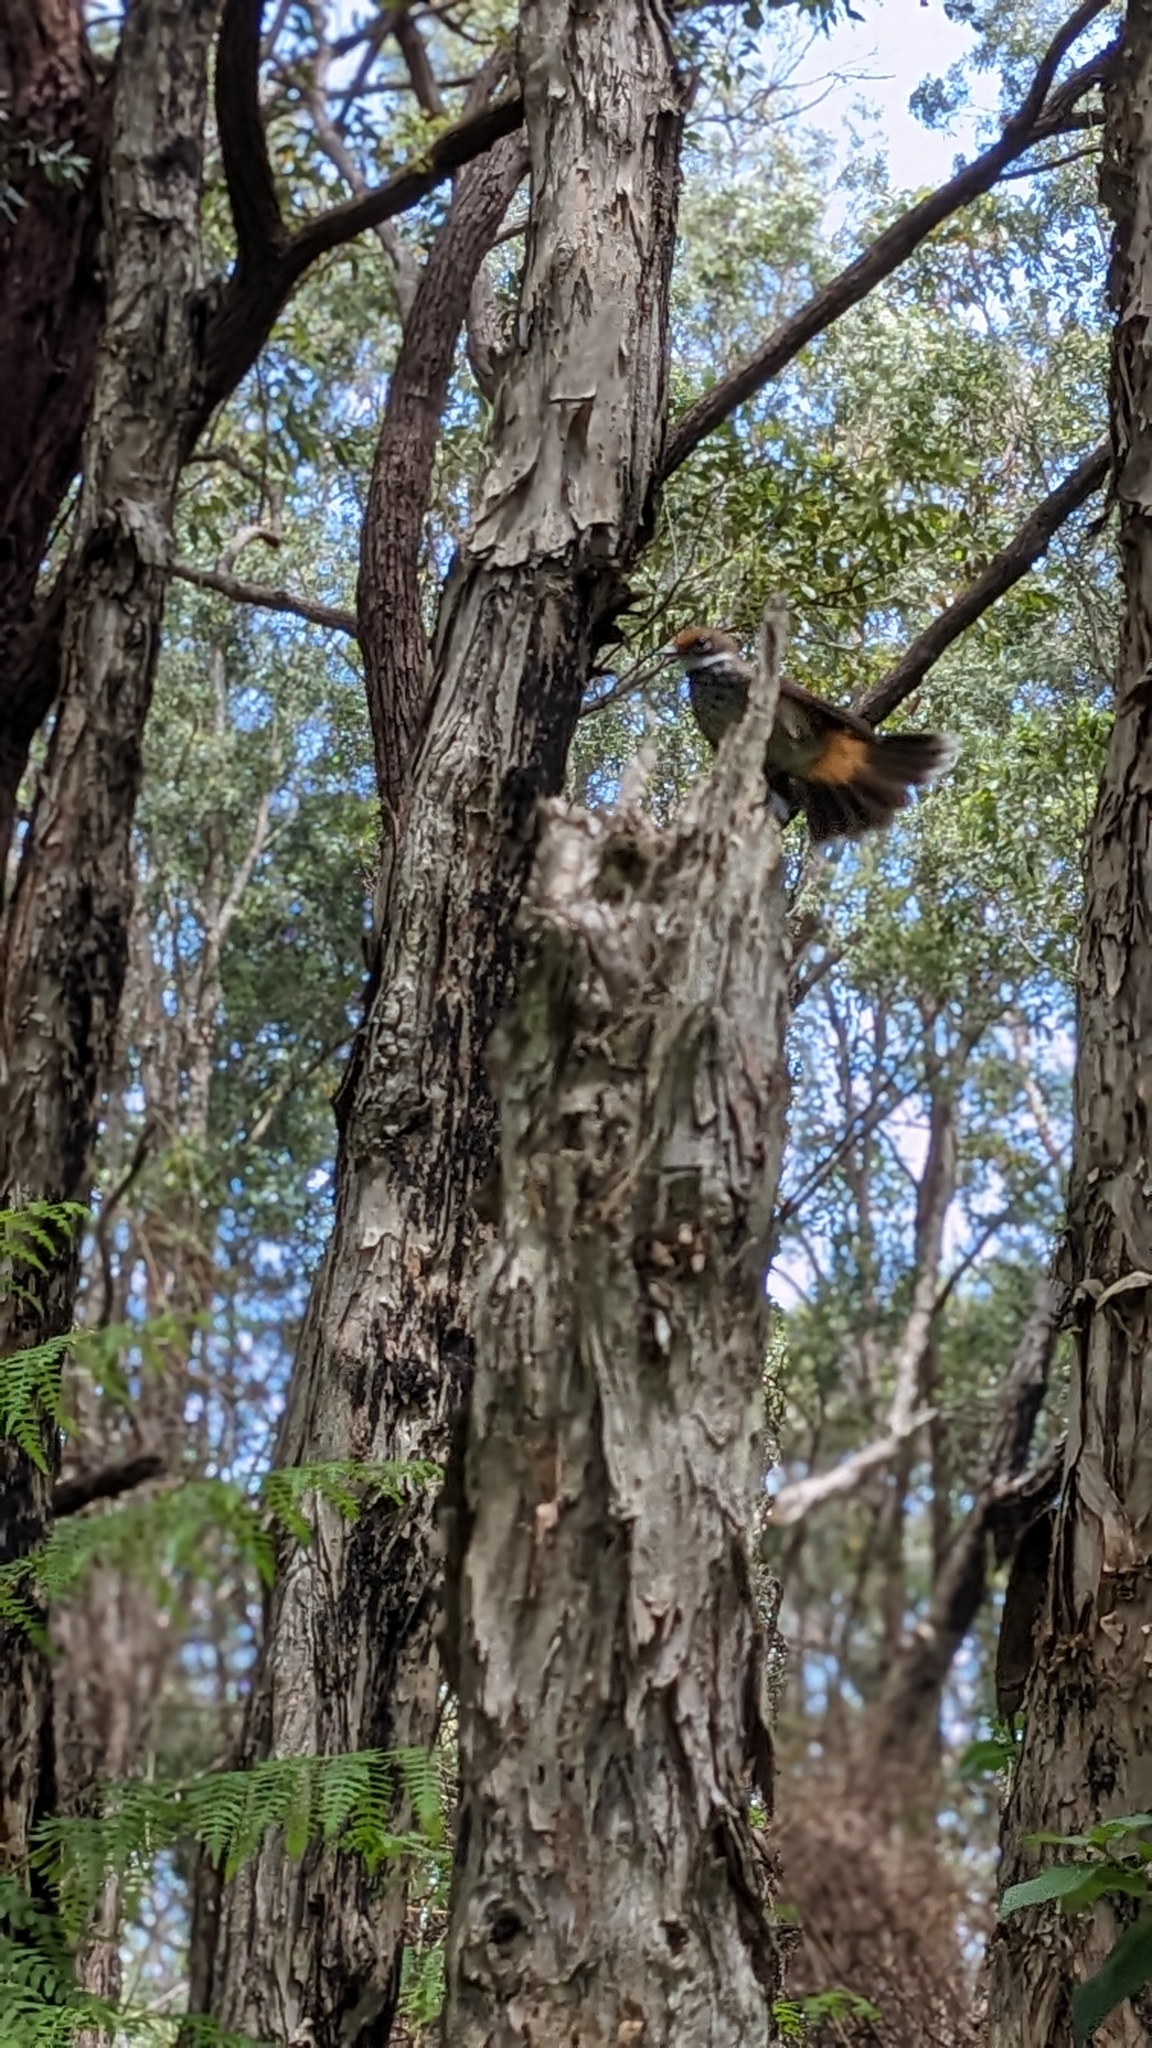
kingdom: Animalia
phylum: Chordata
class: Aves
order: Passeriformes
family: Rhipiduridae
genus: Rhipidura
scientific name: Rhipidura rufifrons
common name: Rufous fantail
